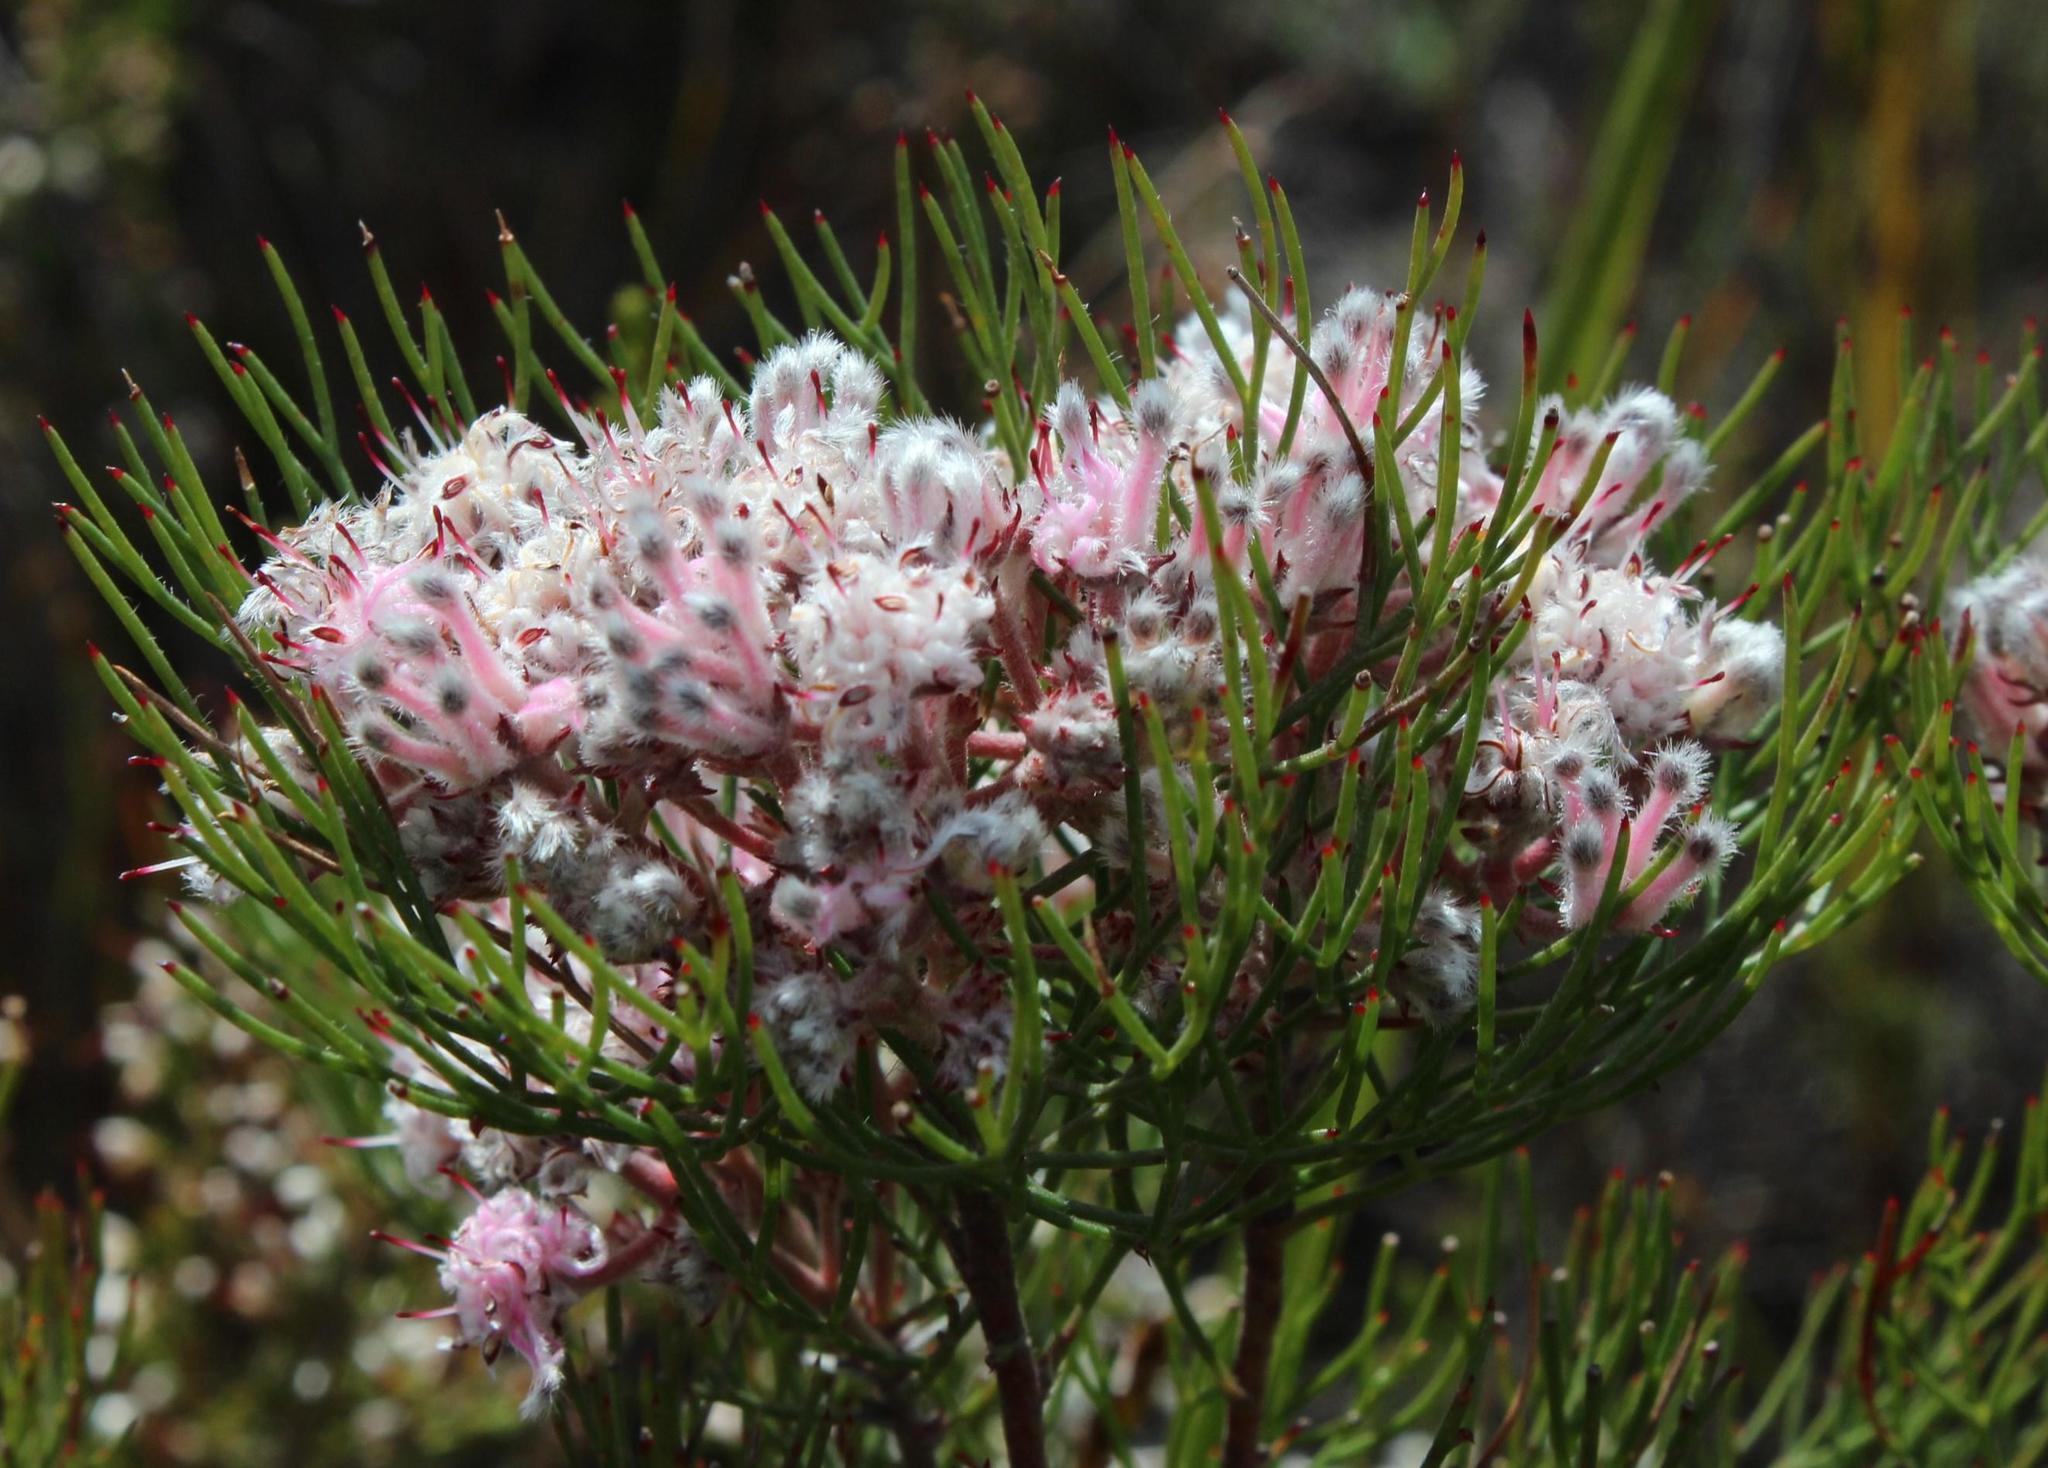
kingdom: Plantae
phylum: Tracheophyta
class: Magnoliopsida
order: Proteales
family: Proteaceae
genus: Serruria
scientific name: Serruria fasciflora
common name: Common pin spiderhead
